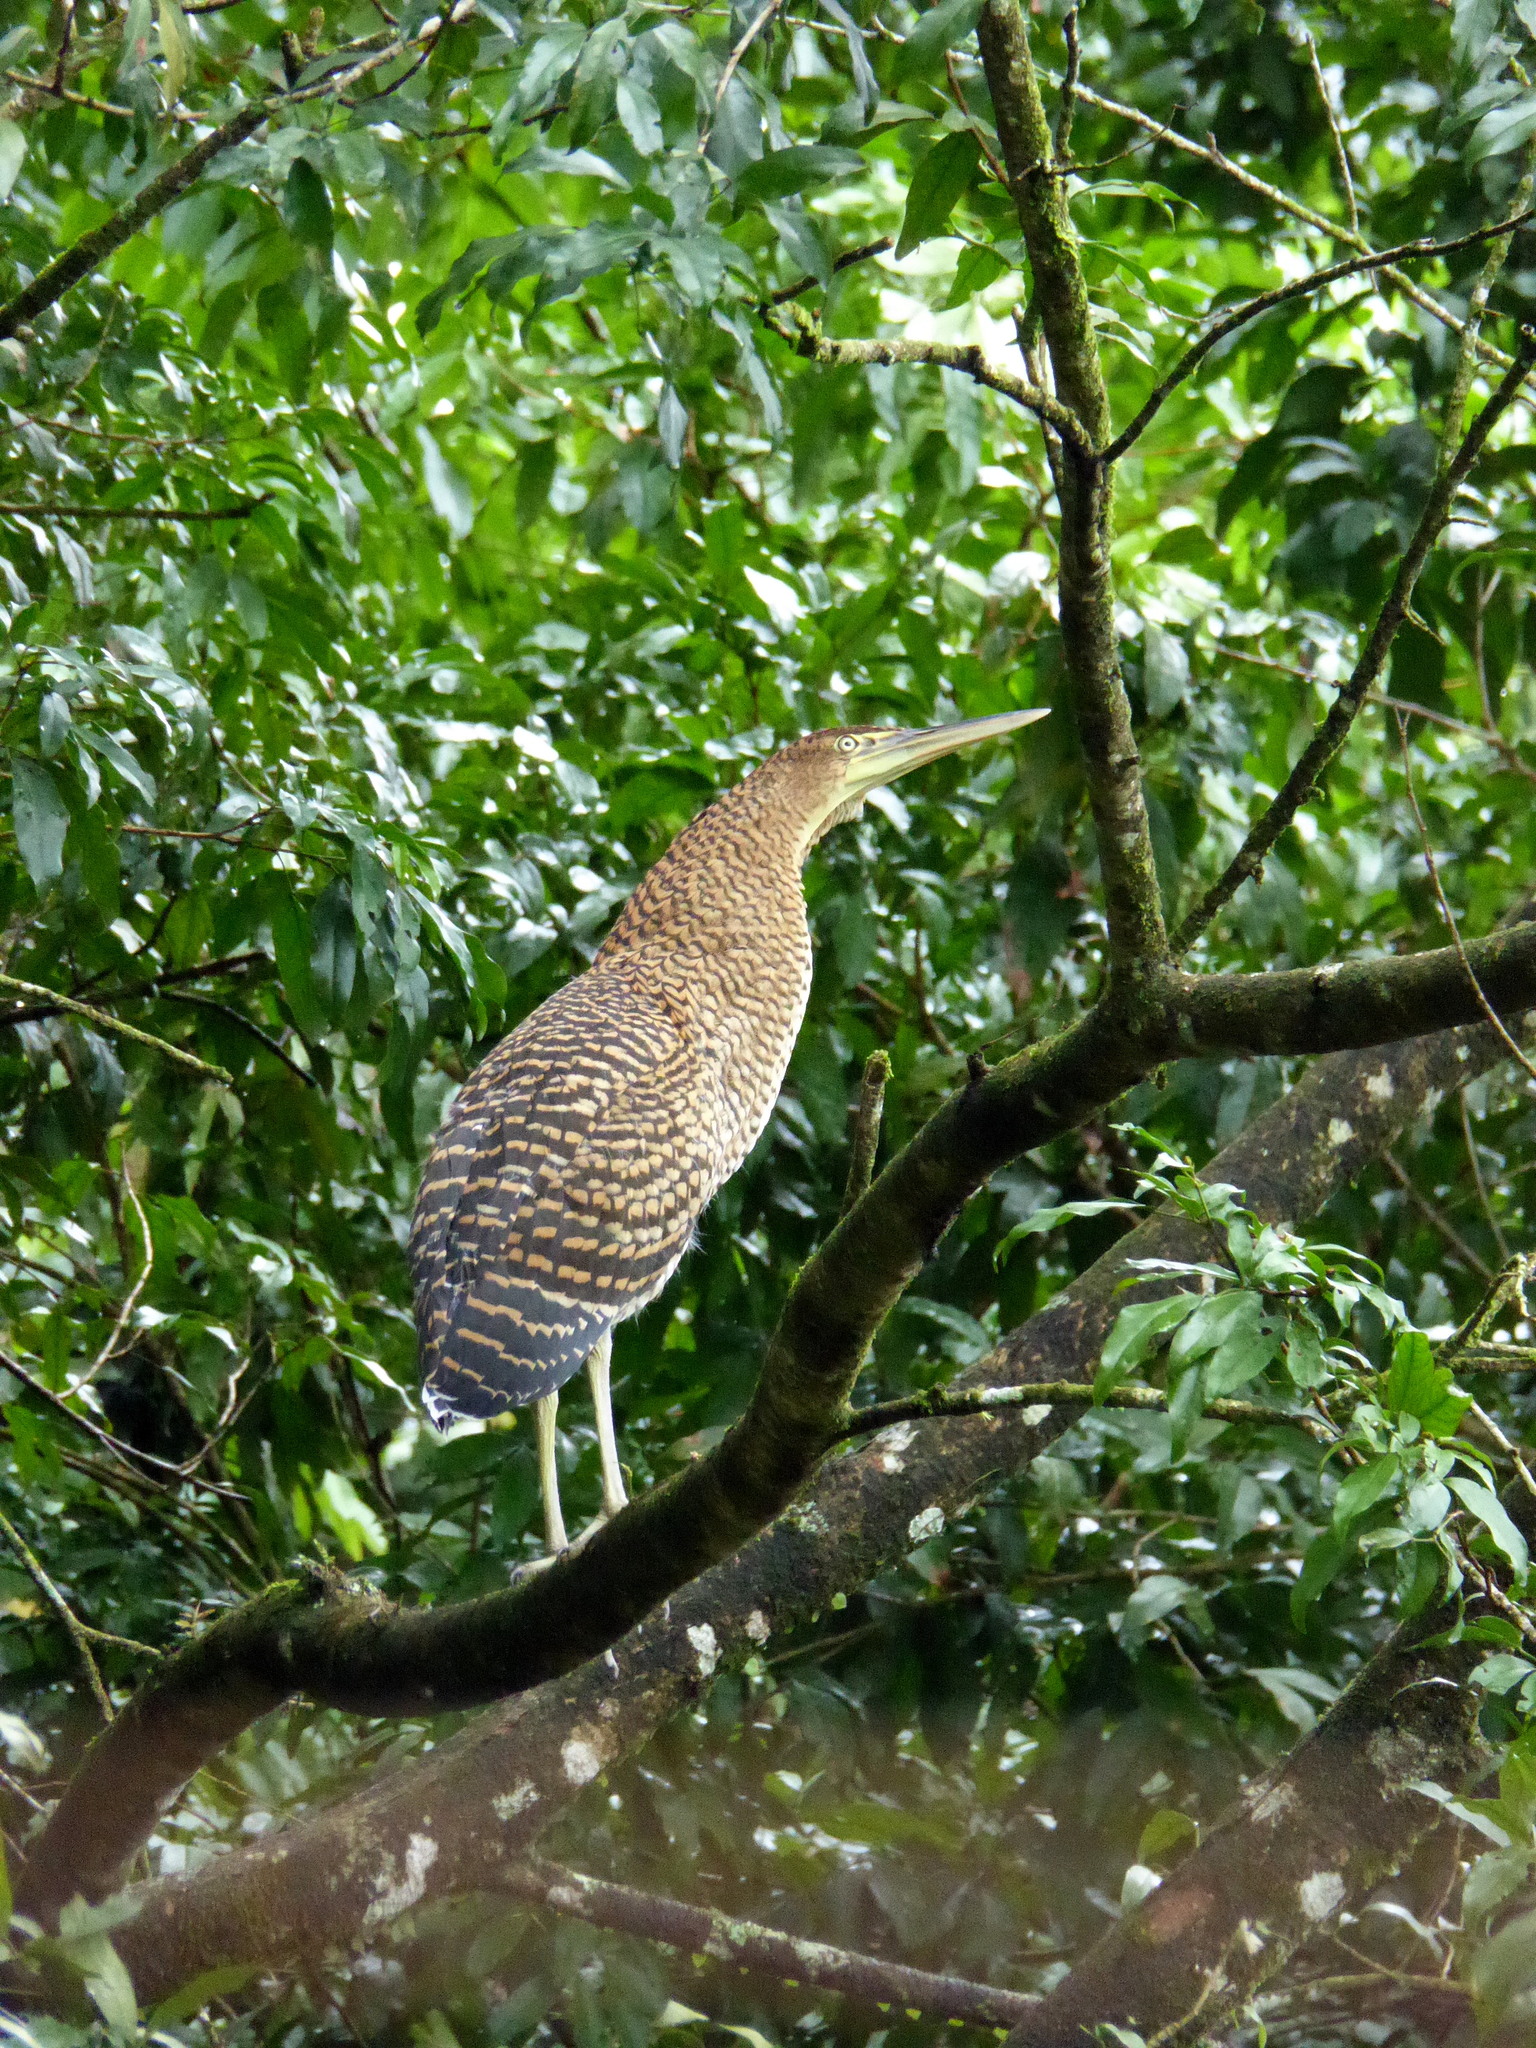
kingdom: Animalia
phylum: Chordata
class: Aves
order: Pelecaniformes
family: Ardeidae
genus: Tigrisoma
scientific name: Tigrisoma mexicanum
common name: Bare-throated tiger-heron
